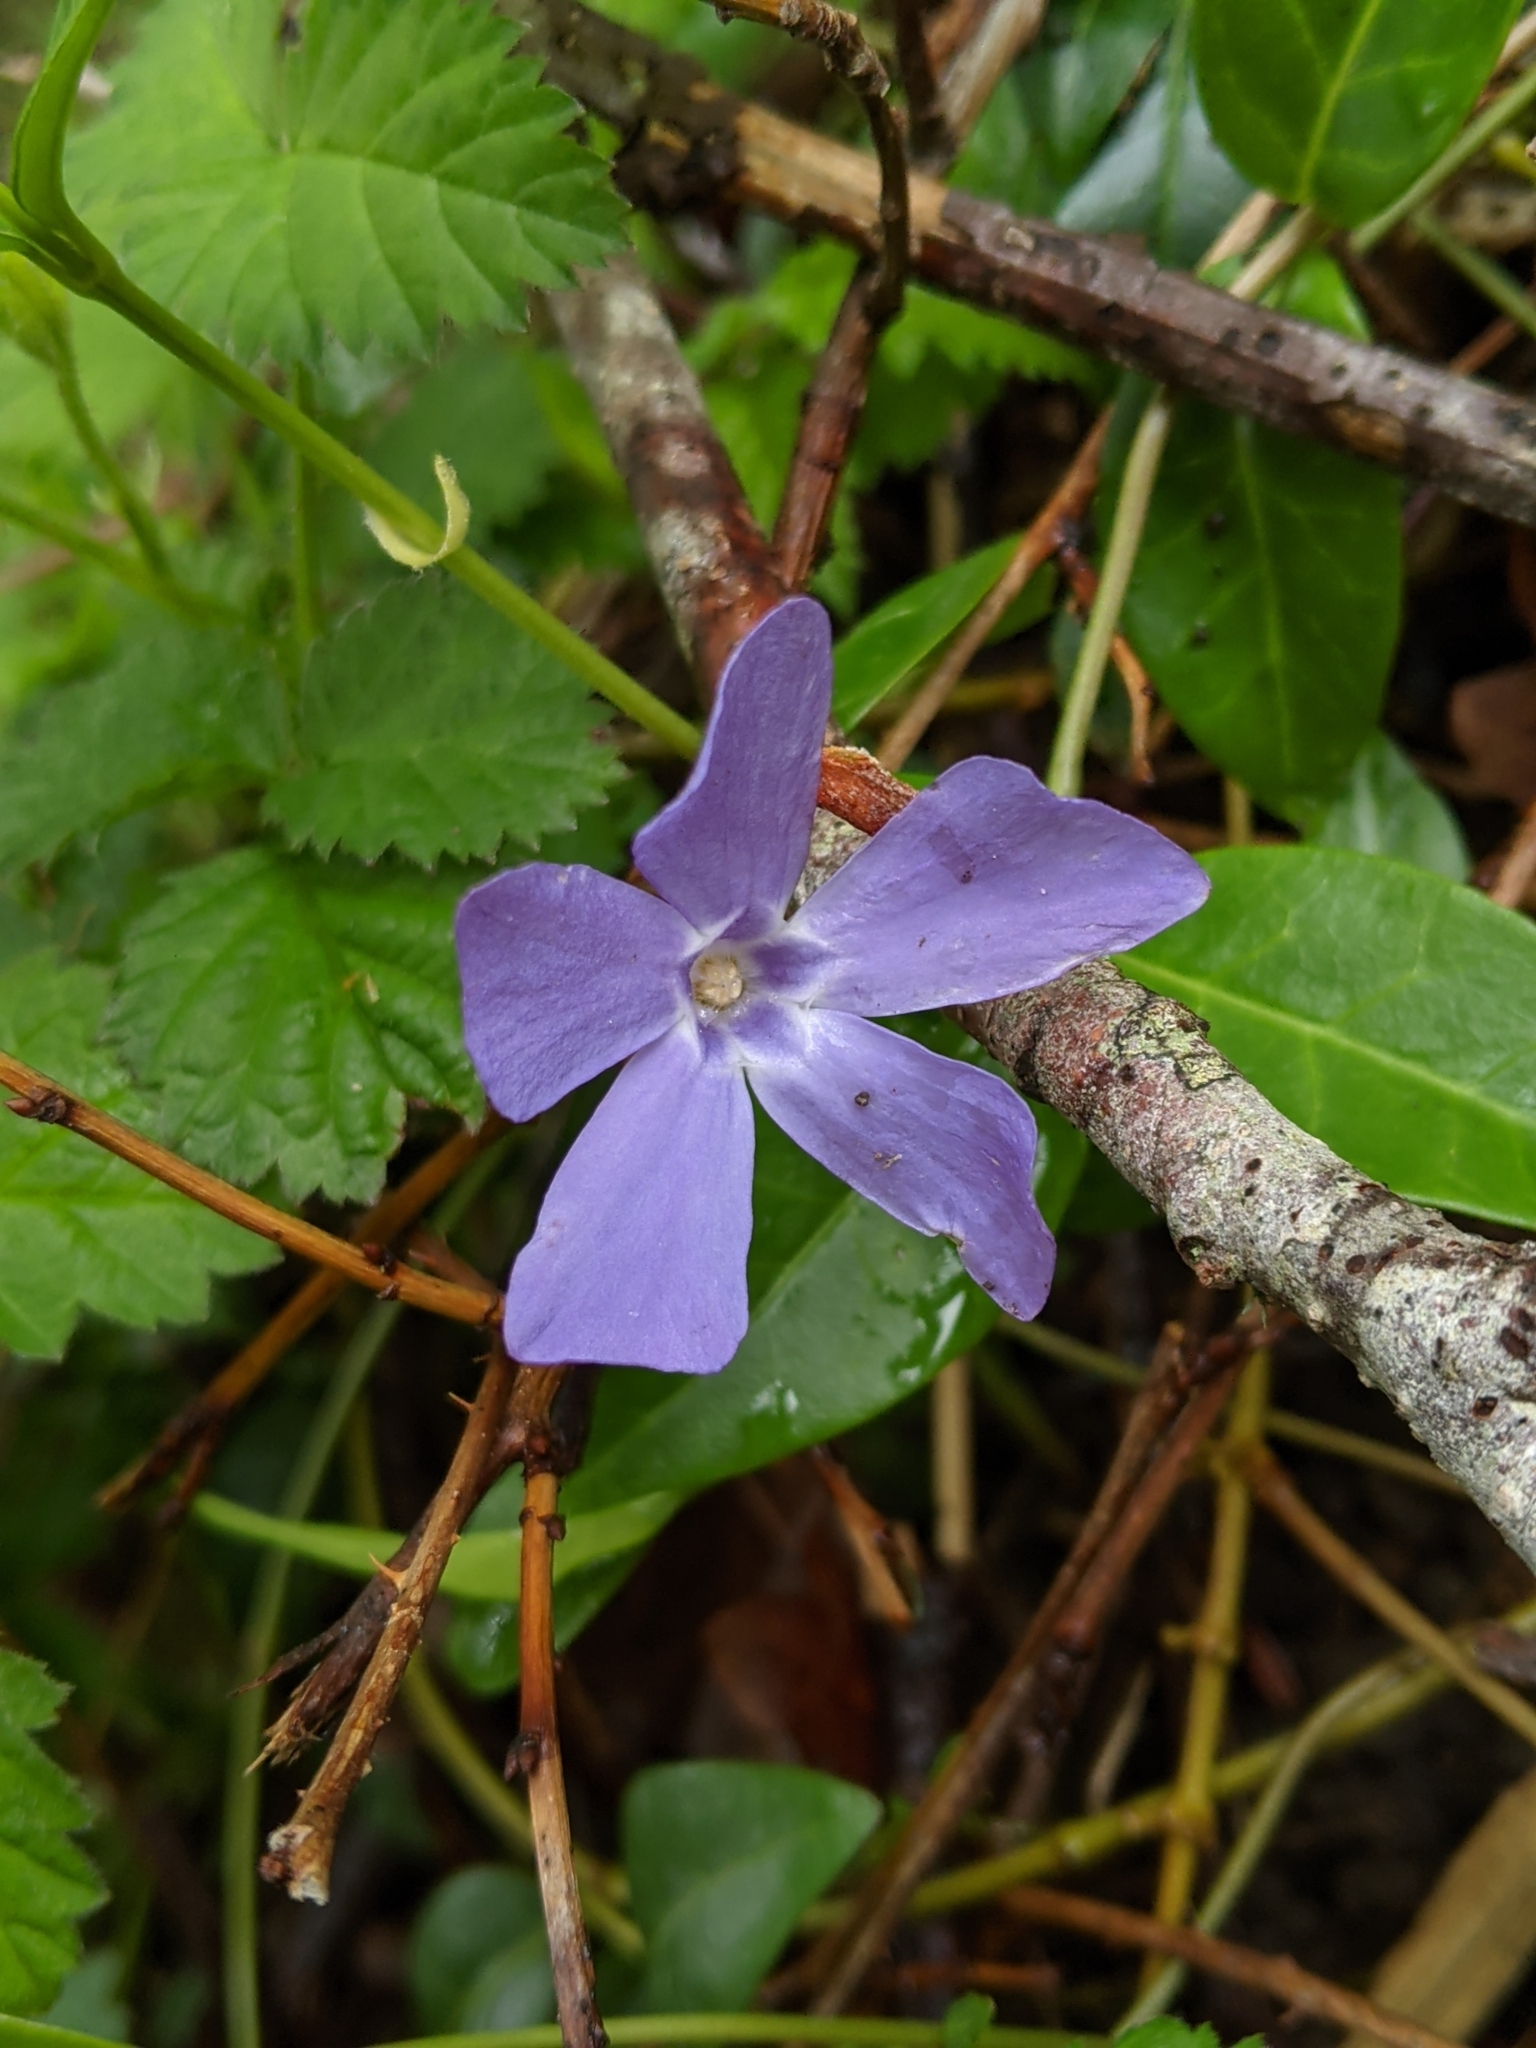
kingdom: Plantae
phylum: Tracheophyta
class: Magnoliopsida
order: Gentianales
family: Apocynaceae
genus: Vinca
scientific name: Vinca minor
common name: Lesser periwinkle
